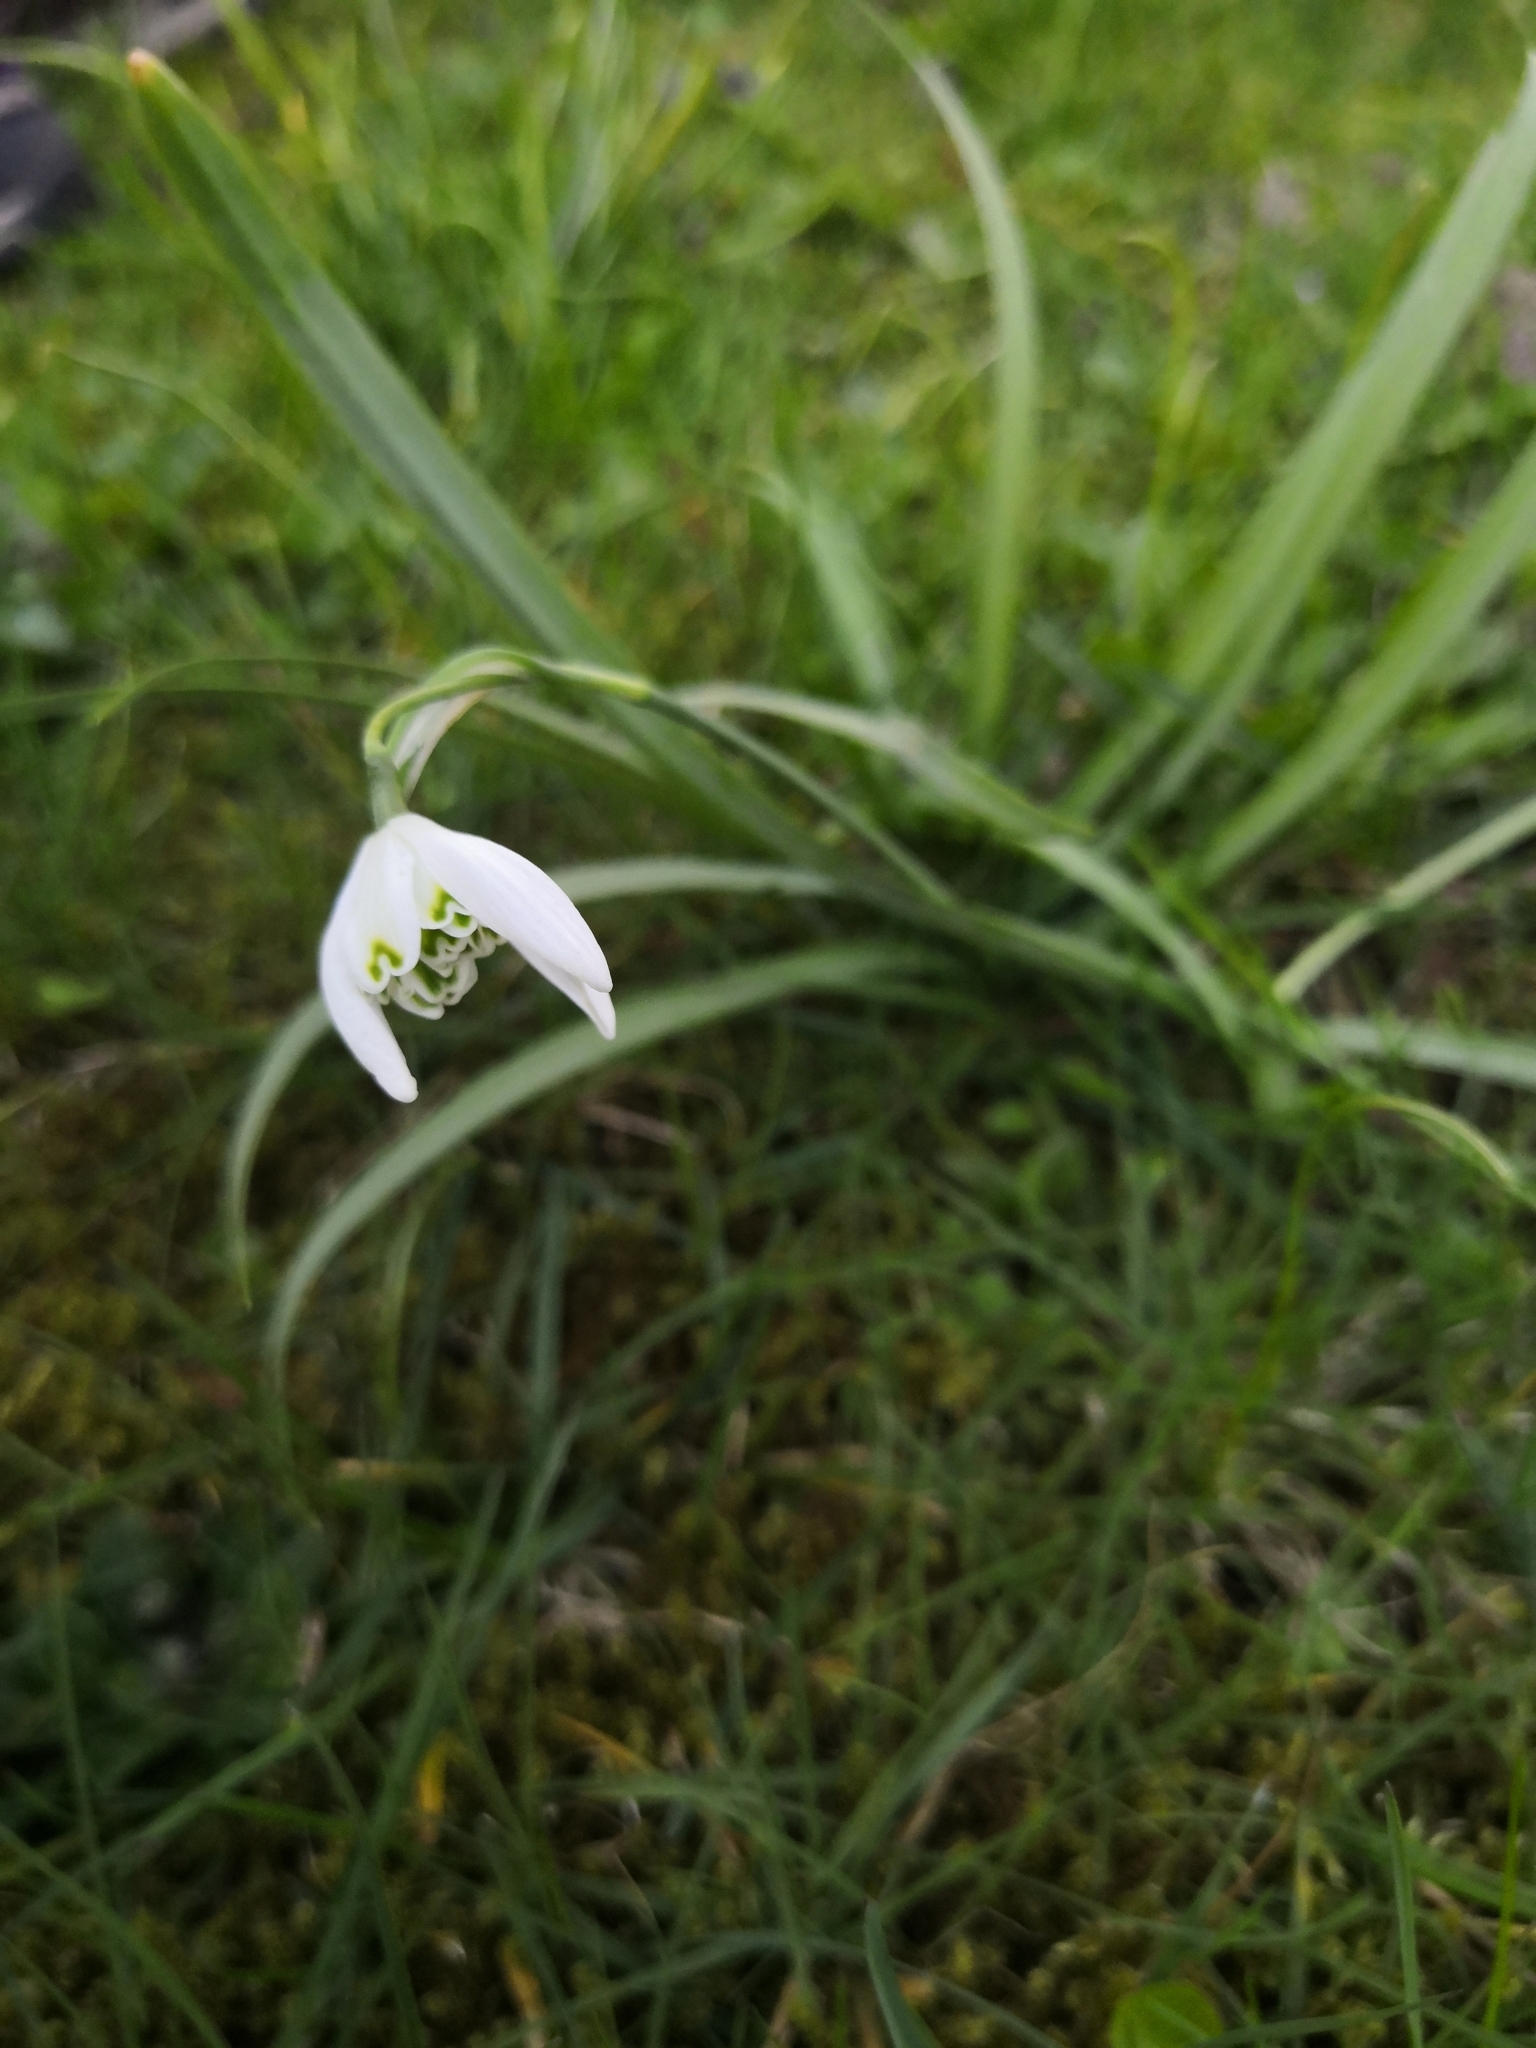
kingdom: Plantae
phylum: Tracheophyta
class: Liliopsida
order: Asparagales
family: Amaryllidaceae
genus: Galanthus
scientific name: Galanthus nivalis
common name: Snowdrop
